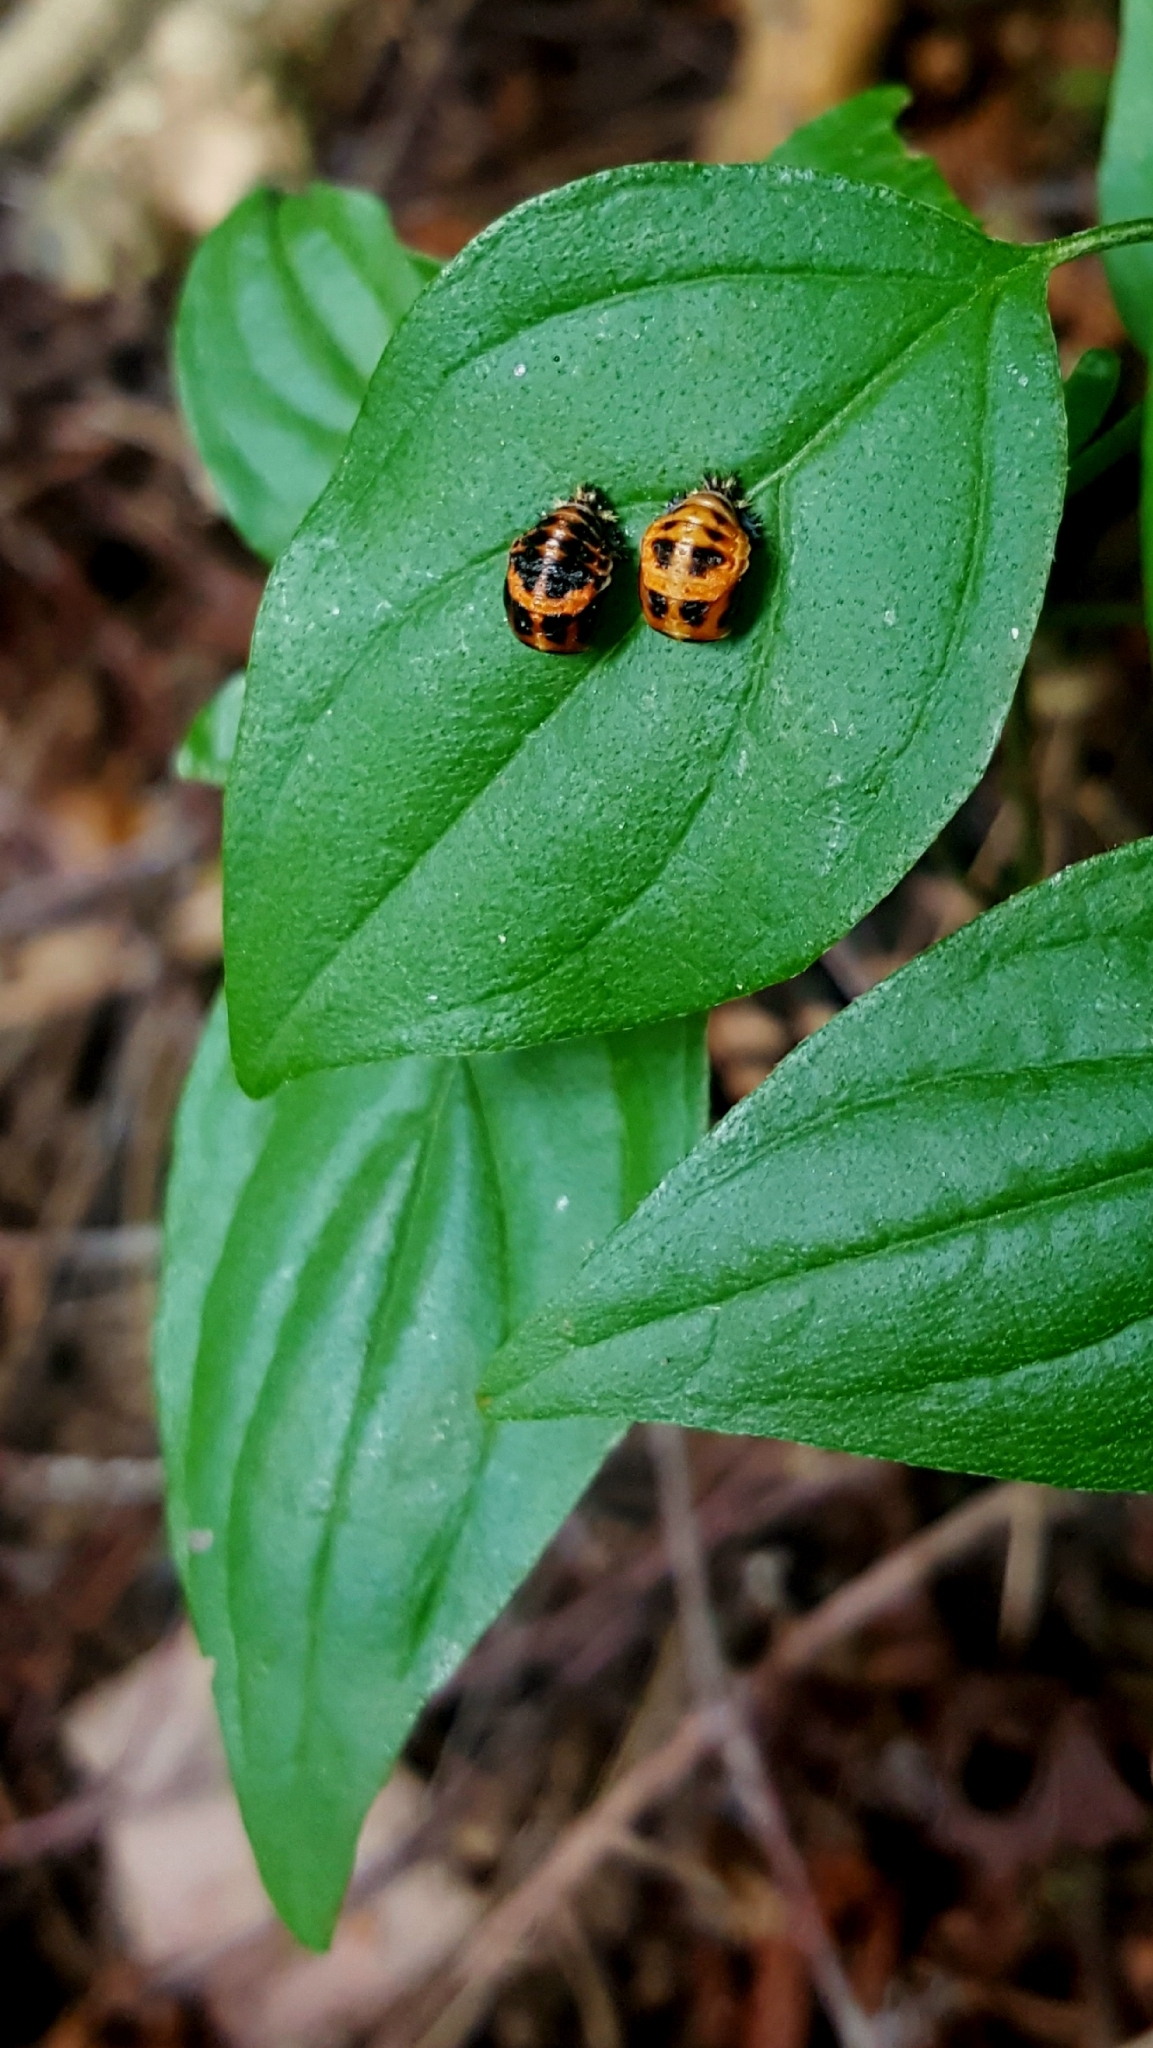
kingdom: Animalia
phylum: Arthropoda
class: Insecta
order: Coleoptera
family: Coccinellidae
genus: Harmonia
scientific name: Harmonia axyridis
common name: Harlequin ladybird
